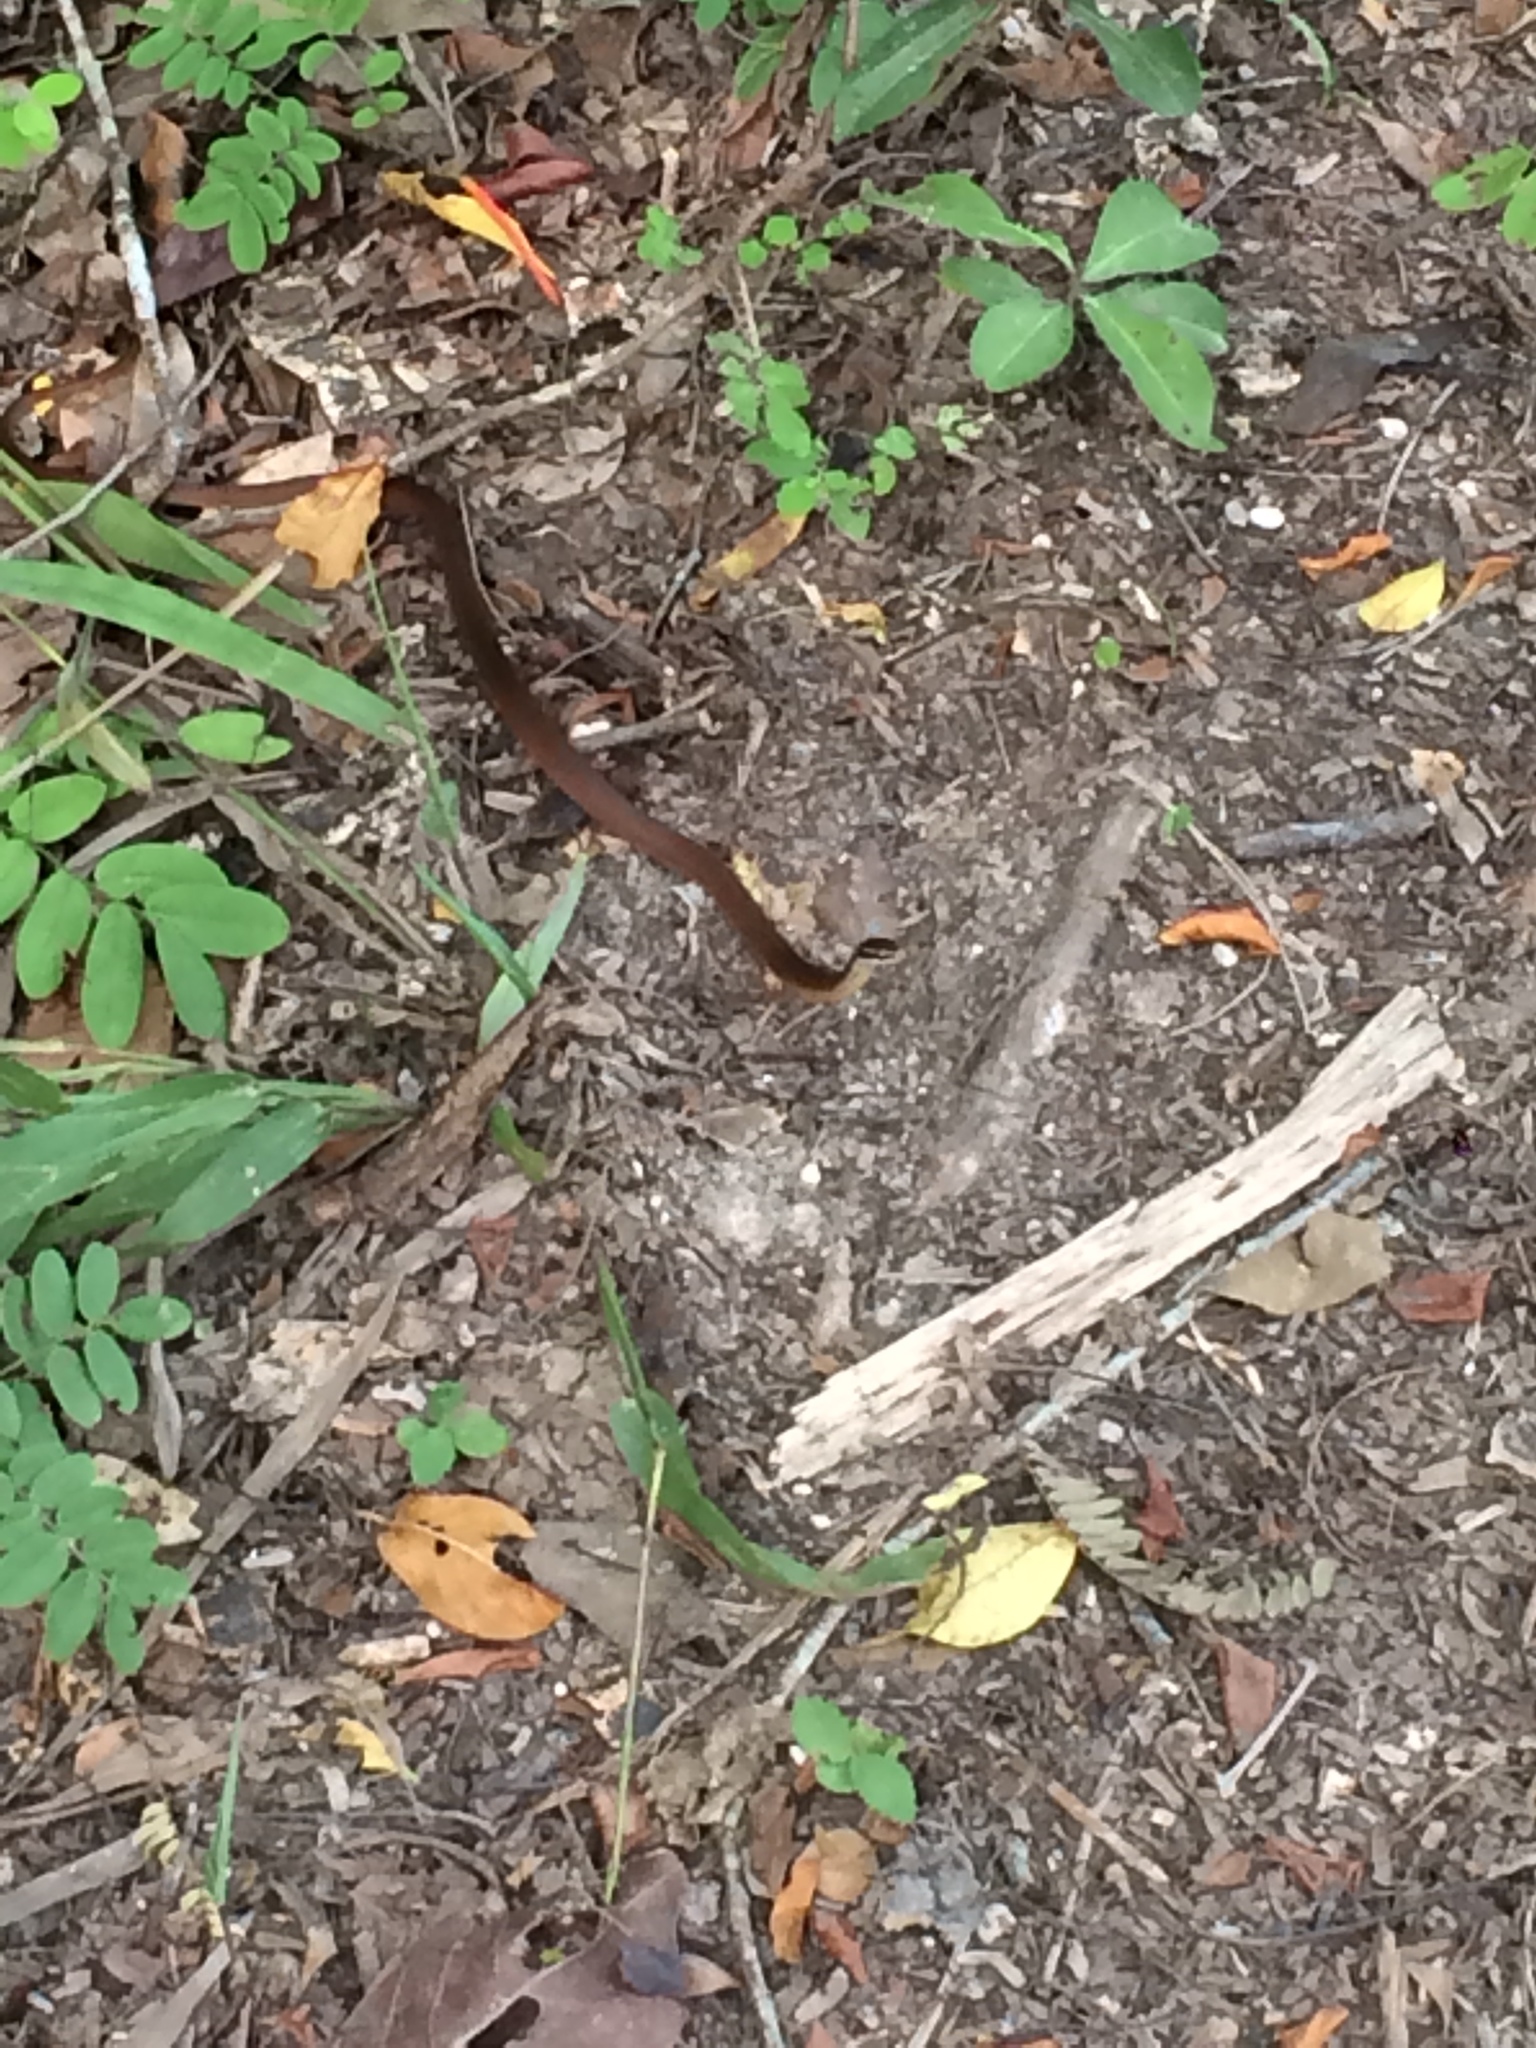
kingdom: Animalia
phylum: Chordata
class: Squamata
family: Colubridae
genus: Coniophanes
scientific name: Coniophanes meridanus
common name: Peninsula stripeless snake
